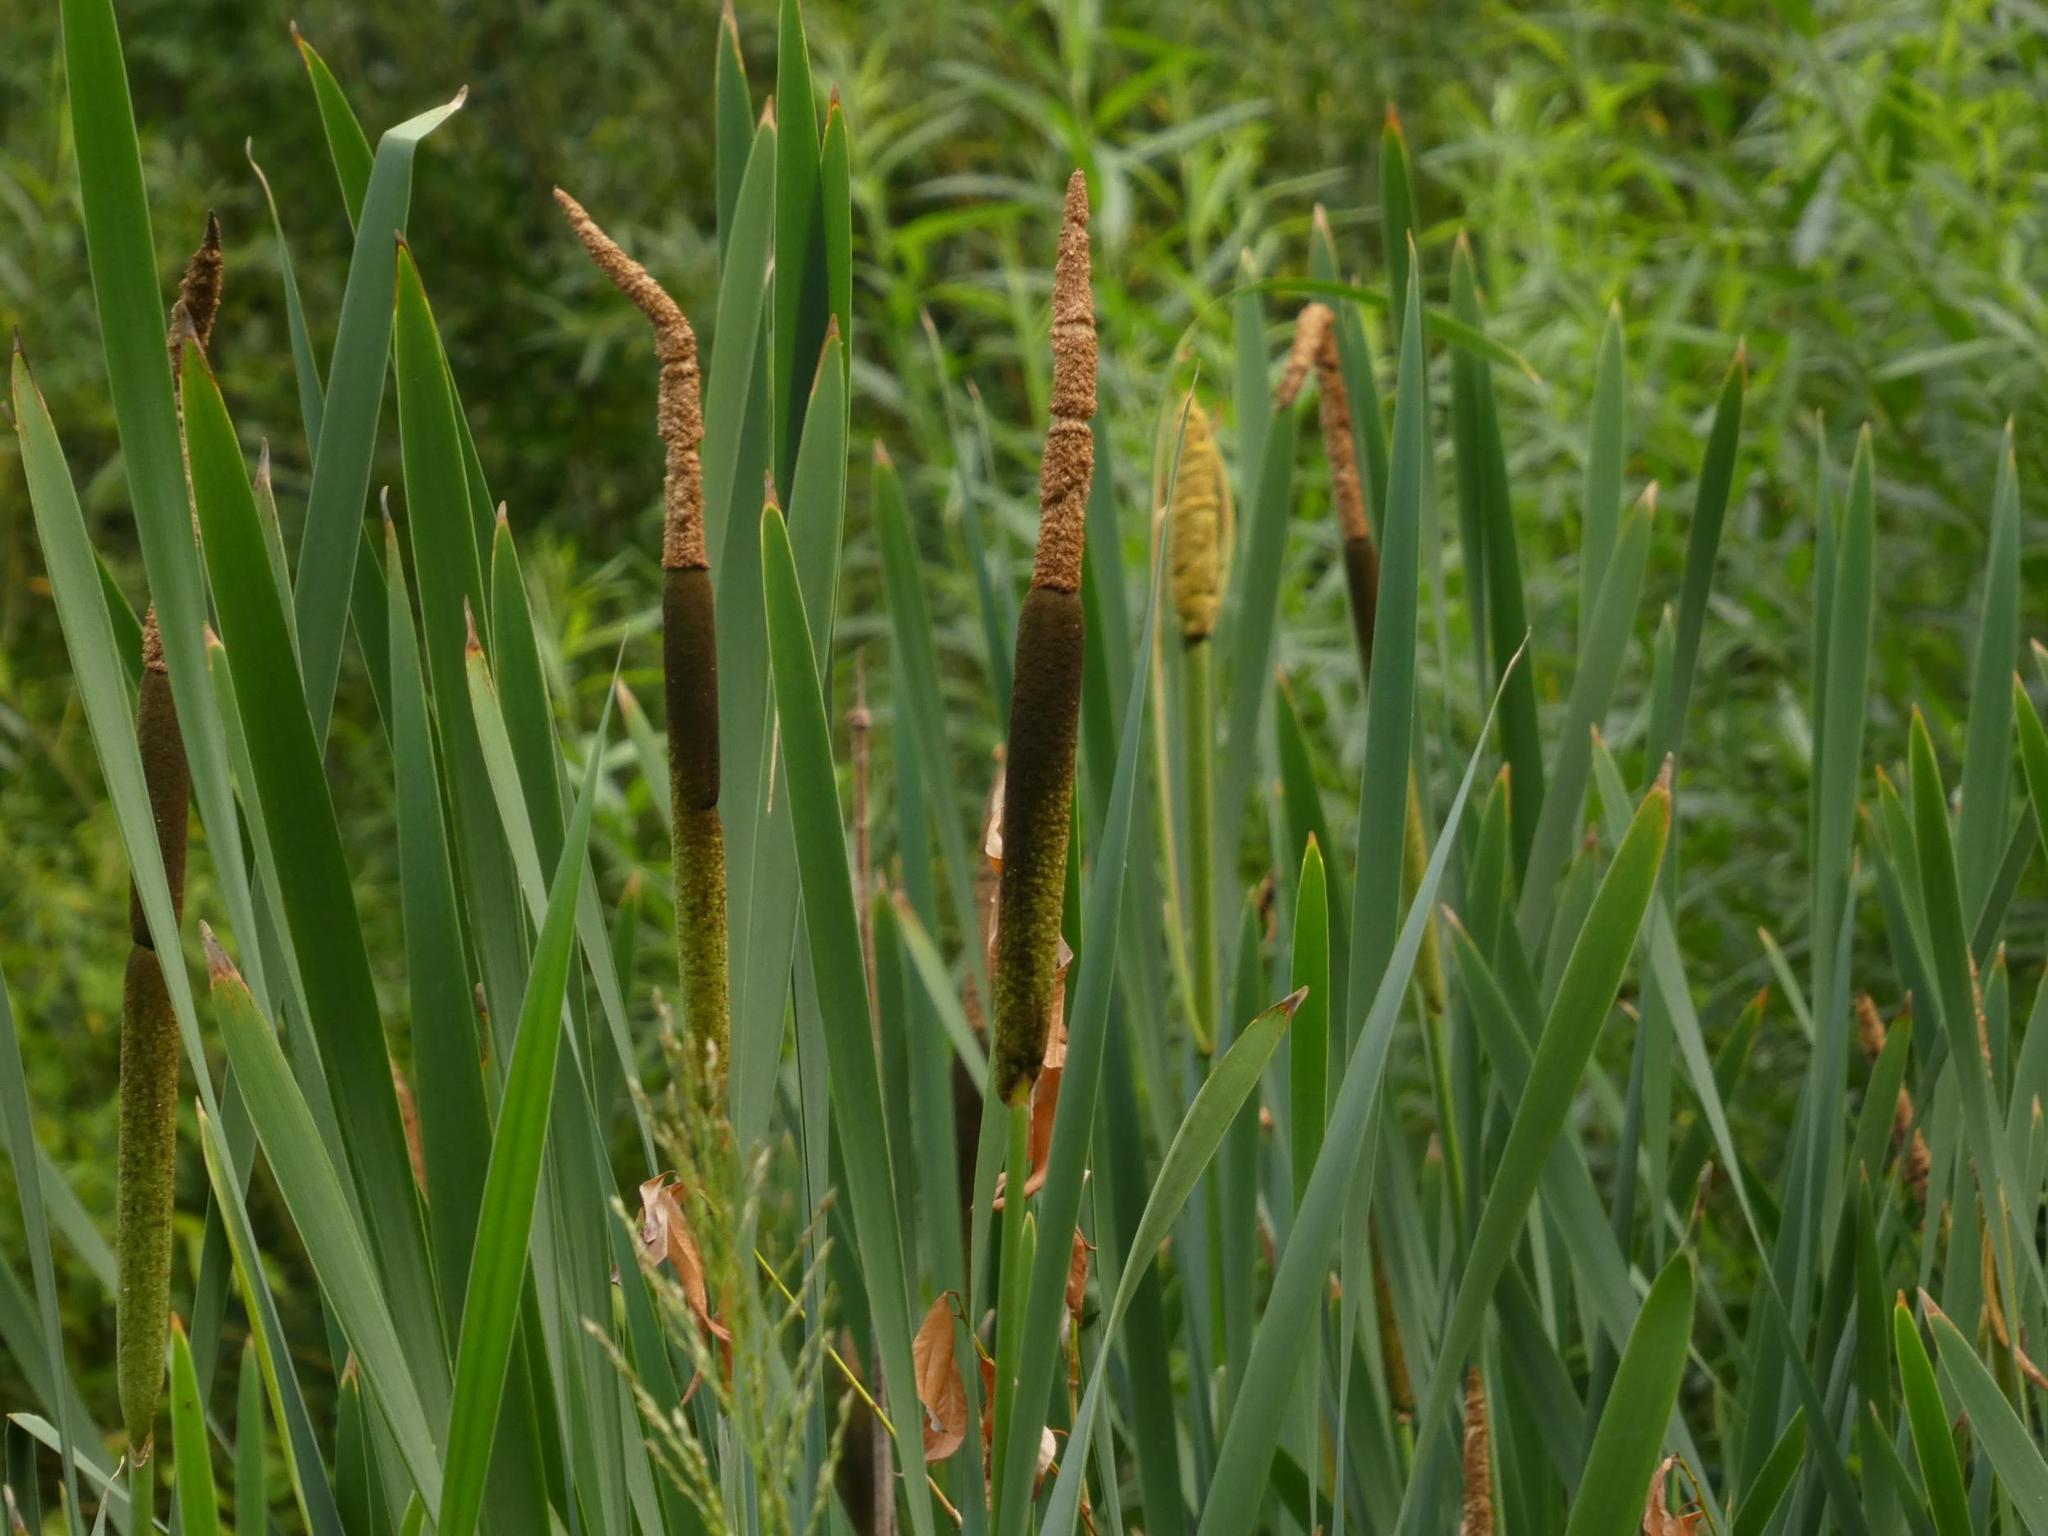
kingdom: Plantae
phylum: Tracheophyta
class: Liliopsida
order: Poales
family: Typhaceae
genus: Typha
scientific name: Typha latifolia
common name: Broadleaf cattail
